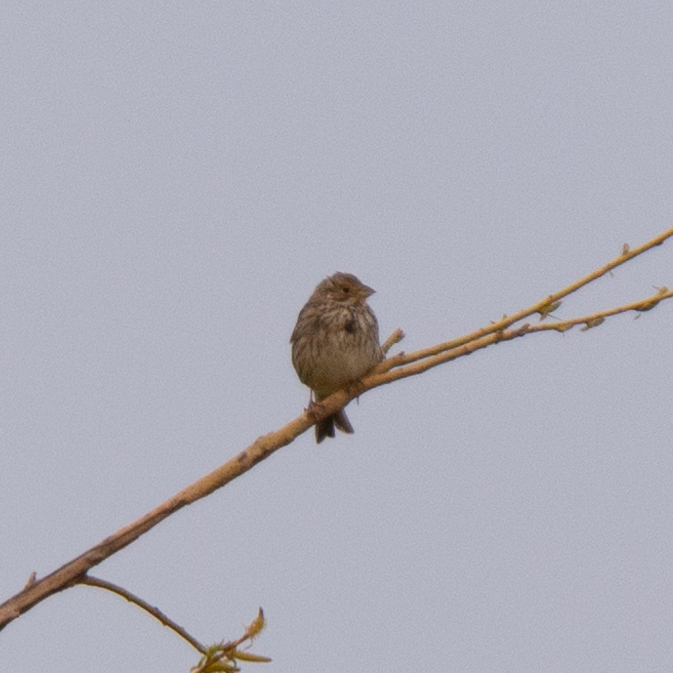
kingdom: Animalia
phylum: Chordata
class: Aves
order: Passeriformes
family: Emberizidae
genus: Emberiza
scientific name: Emberiza calandra
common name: Corn bunting
